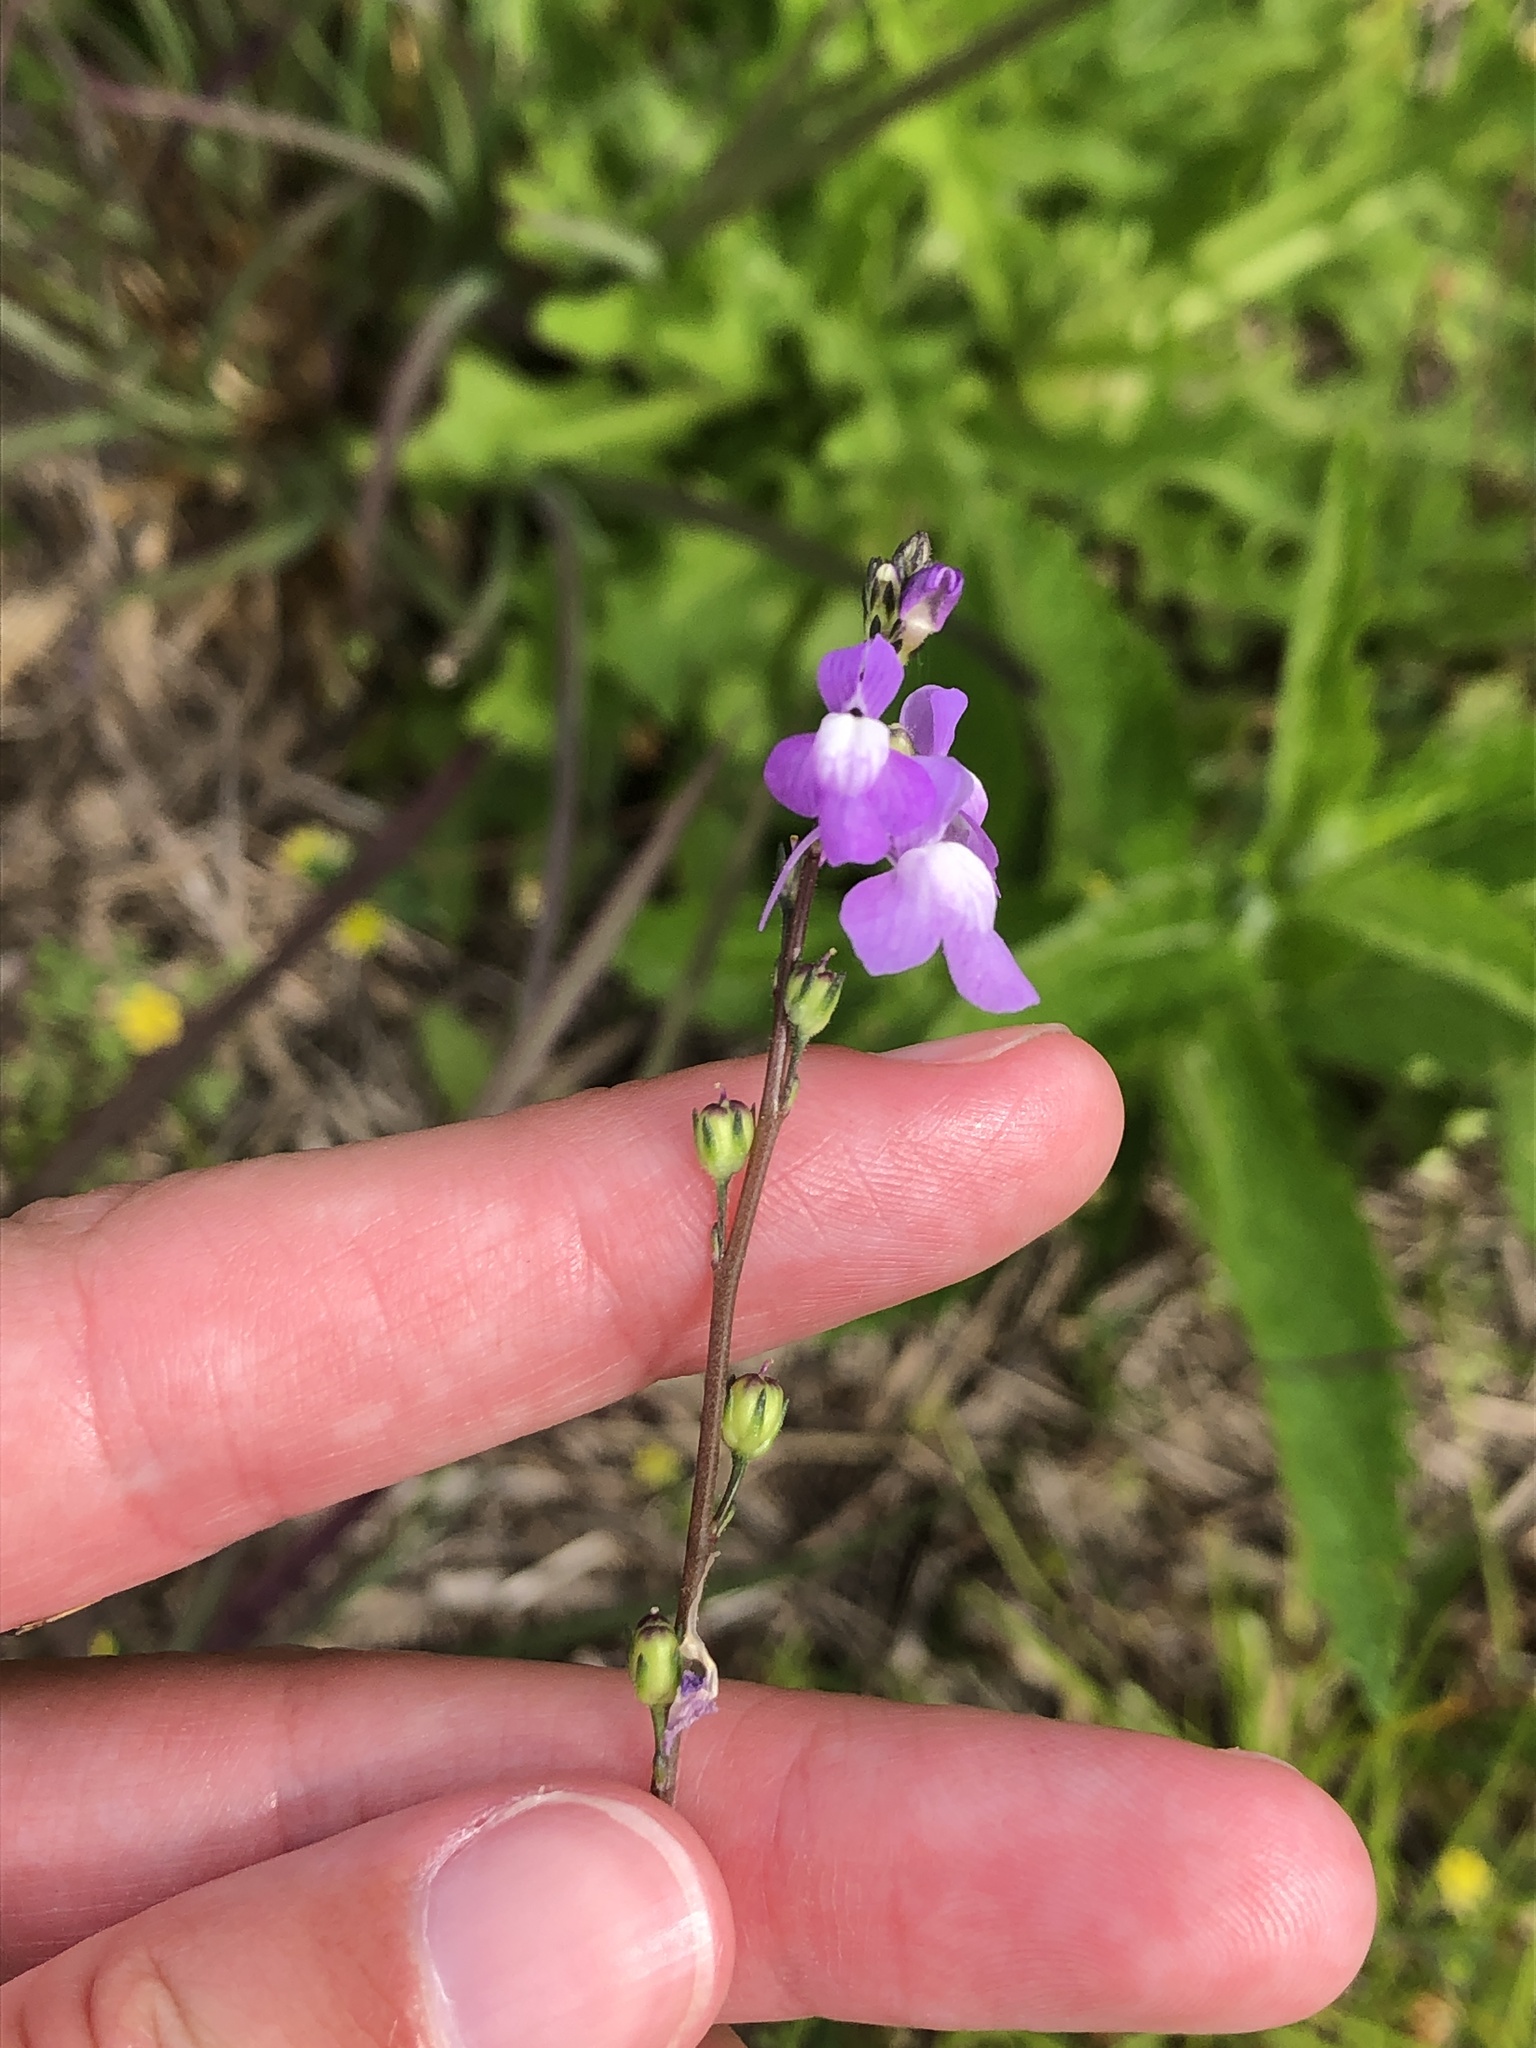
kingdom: Plantae
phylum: Tracheophyta
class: Magnoliopsida
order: Lamiales
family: Plantaginaceae
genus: Nuttallanthus
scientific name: Nuttallanthus canadensis
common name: Blue toadflax
